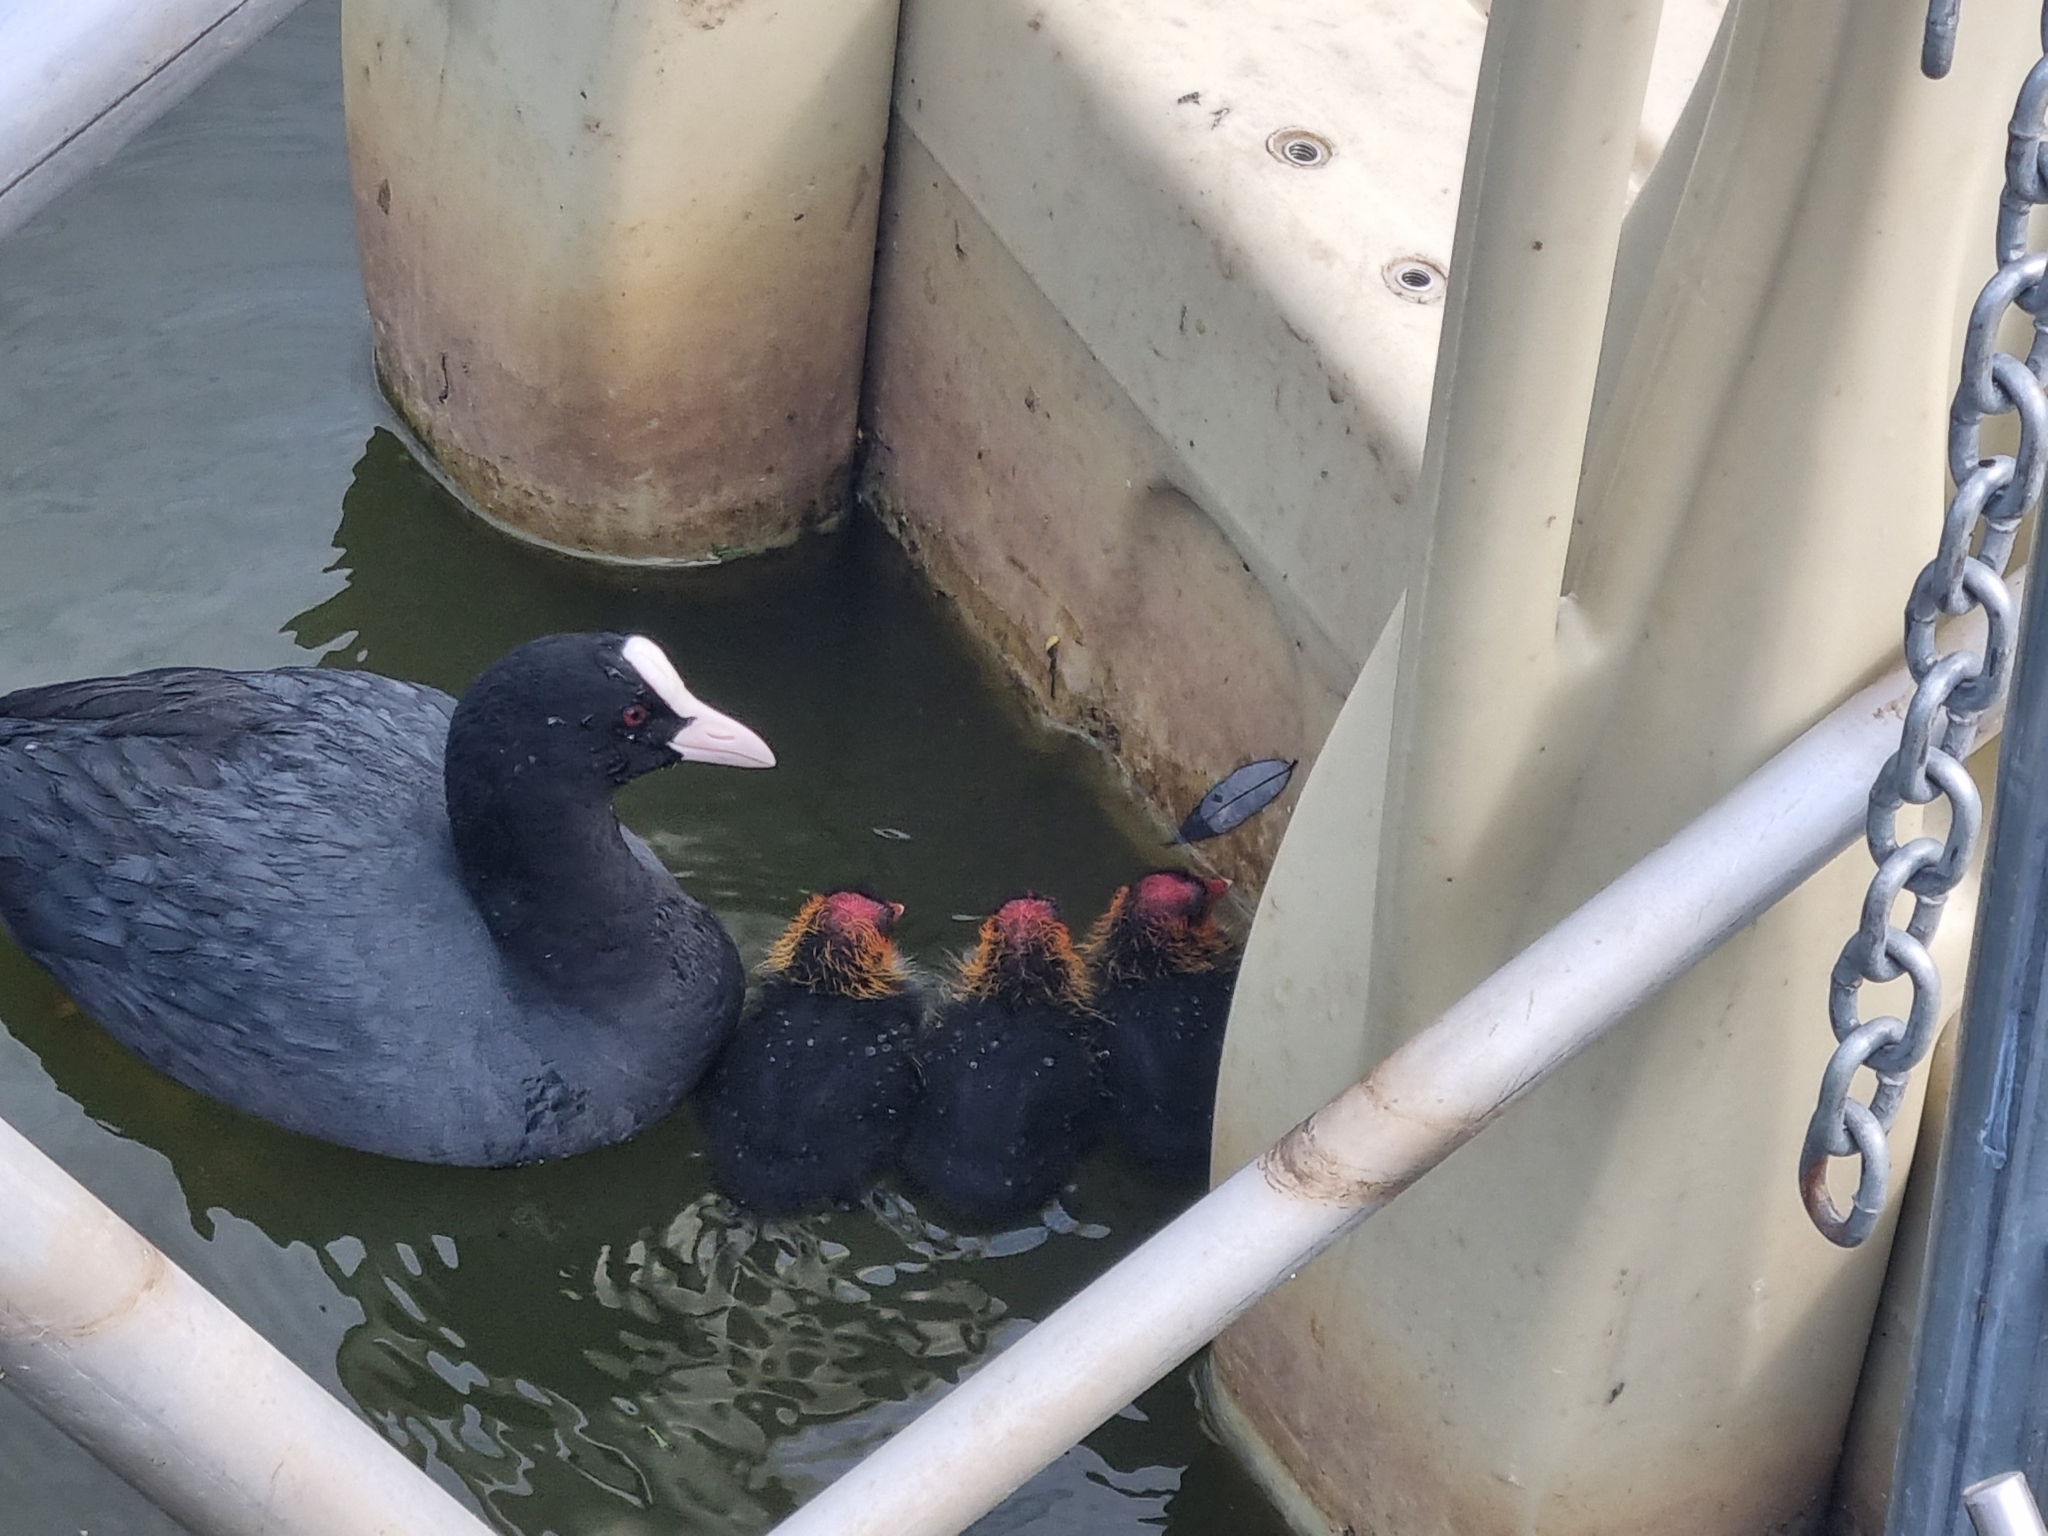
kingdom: Animalia
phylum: Chordata
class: Aves
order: Gruiformes
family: Rallidae
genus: Fulica
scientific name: Fulica atra
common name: Eurasian coot
